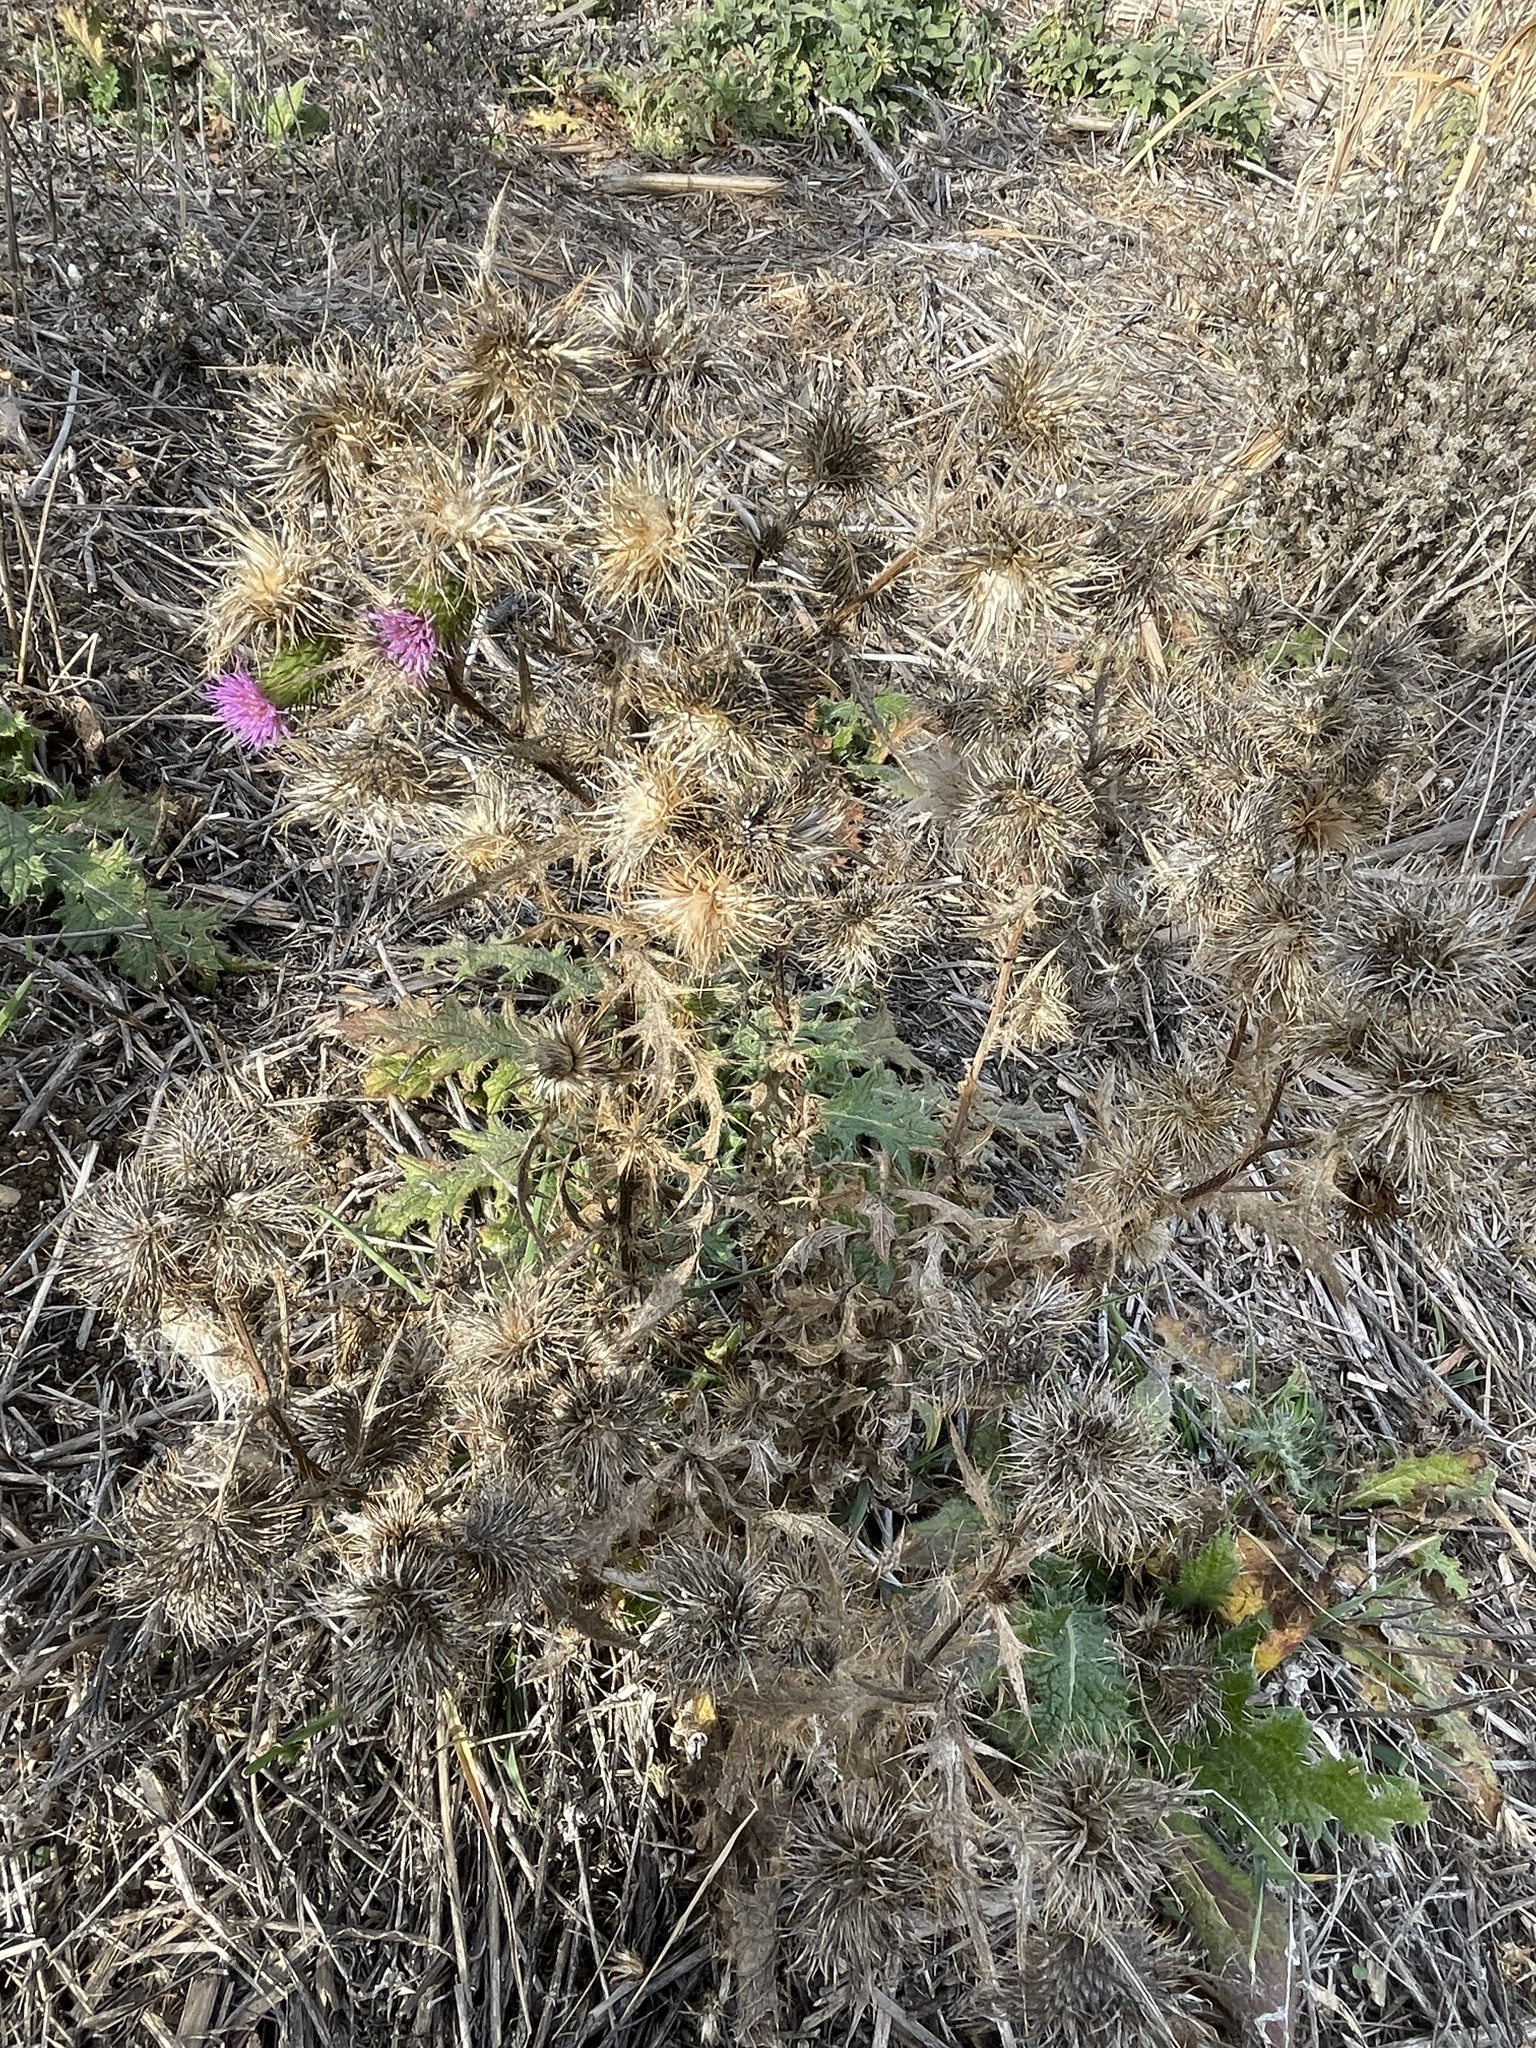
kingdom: Plantae
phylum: Tracheophyta
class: Magnoliopsida
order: Asterales
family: Asteraceae
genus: Cirsium
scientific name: Cirsium vulgare
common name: Bull thistle
